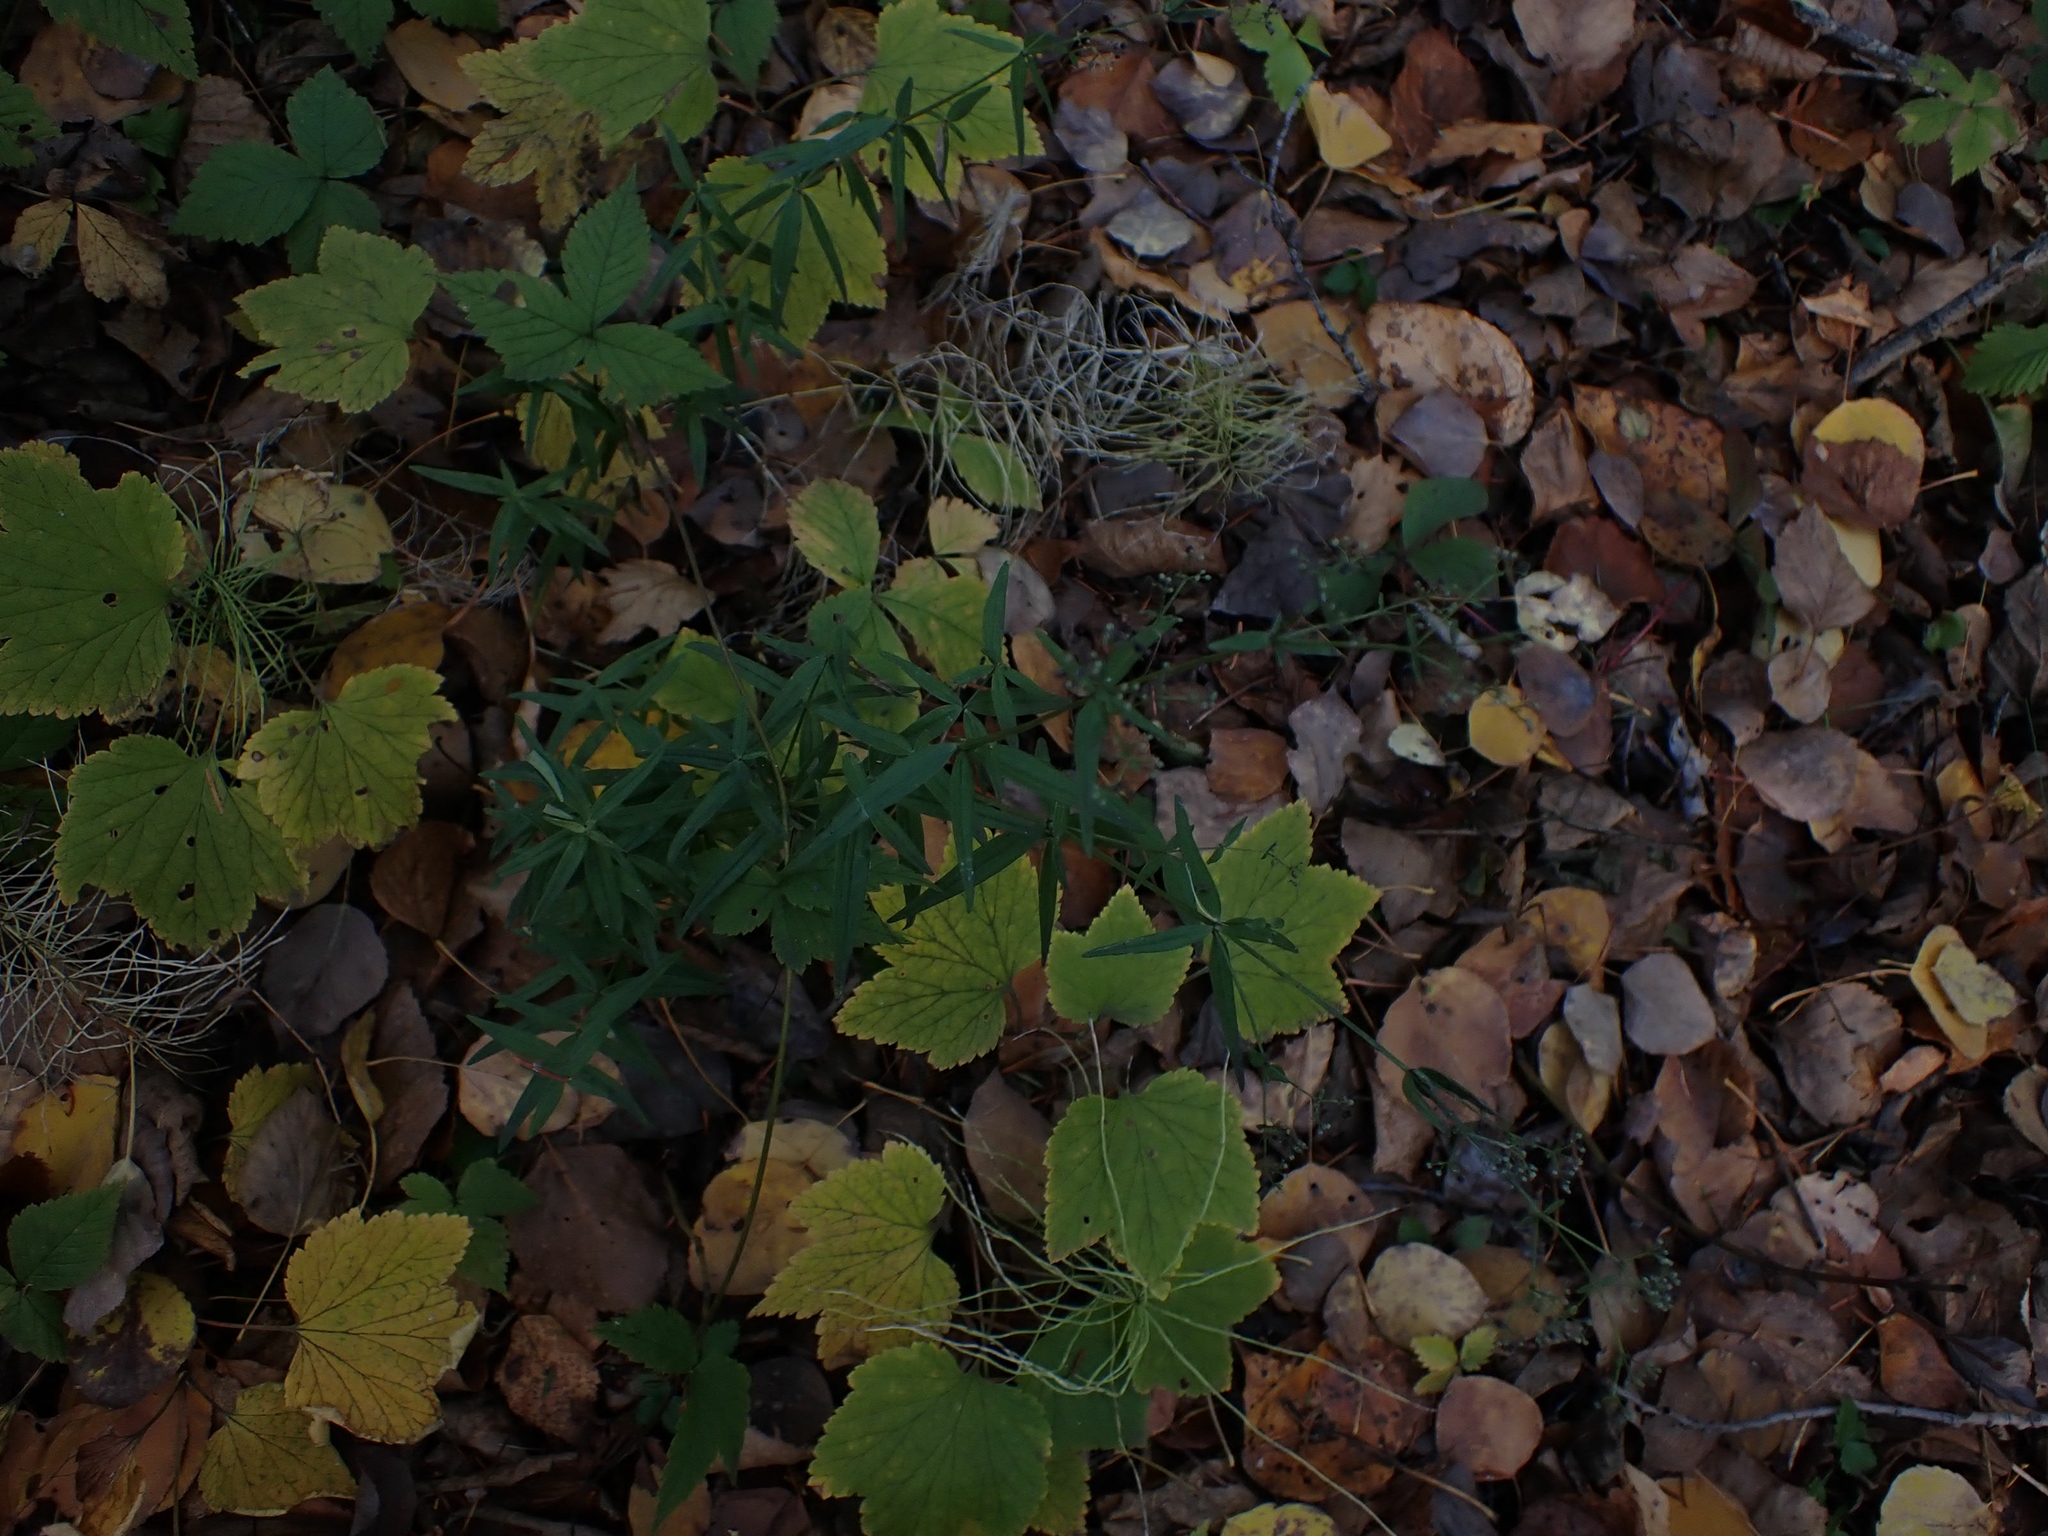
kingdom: Plantae
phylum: Tracheophyta
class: Magnoliopsida
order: Gentianales
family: Rubiaceae
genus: Galium
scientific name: Galium boreale
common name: Northern bedstraw
